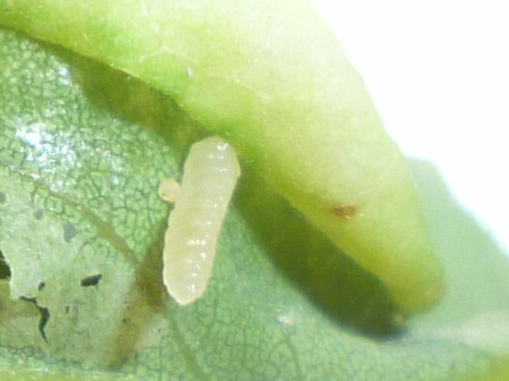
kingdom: Animalia
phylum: Arthropoda
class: Insecta
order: Diptera
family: Cecidomyiidae
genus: Obolodiplosis
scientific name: Obolodiplosis robiniae
